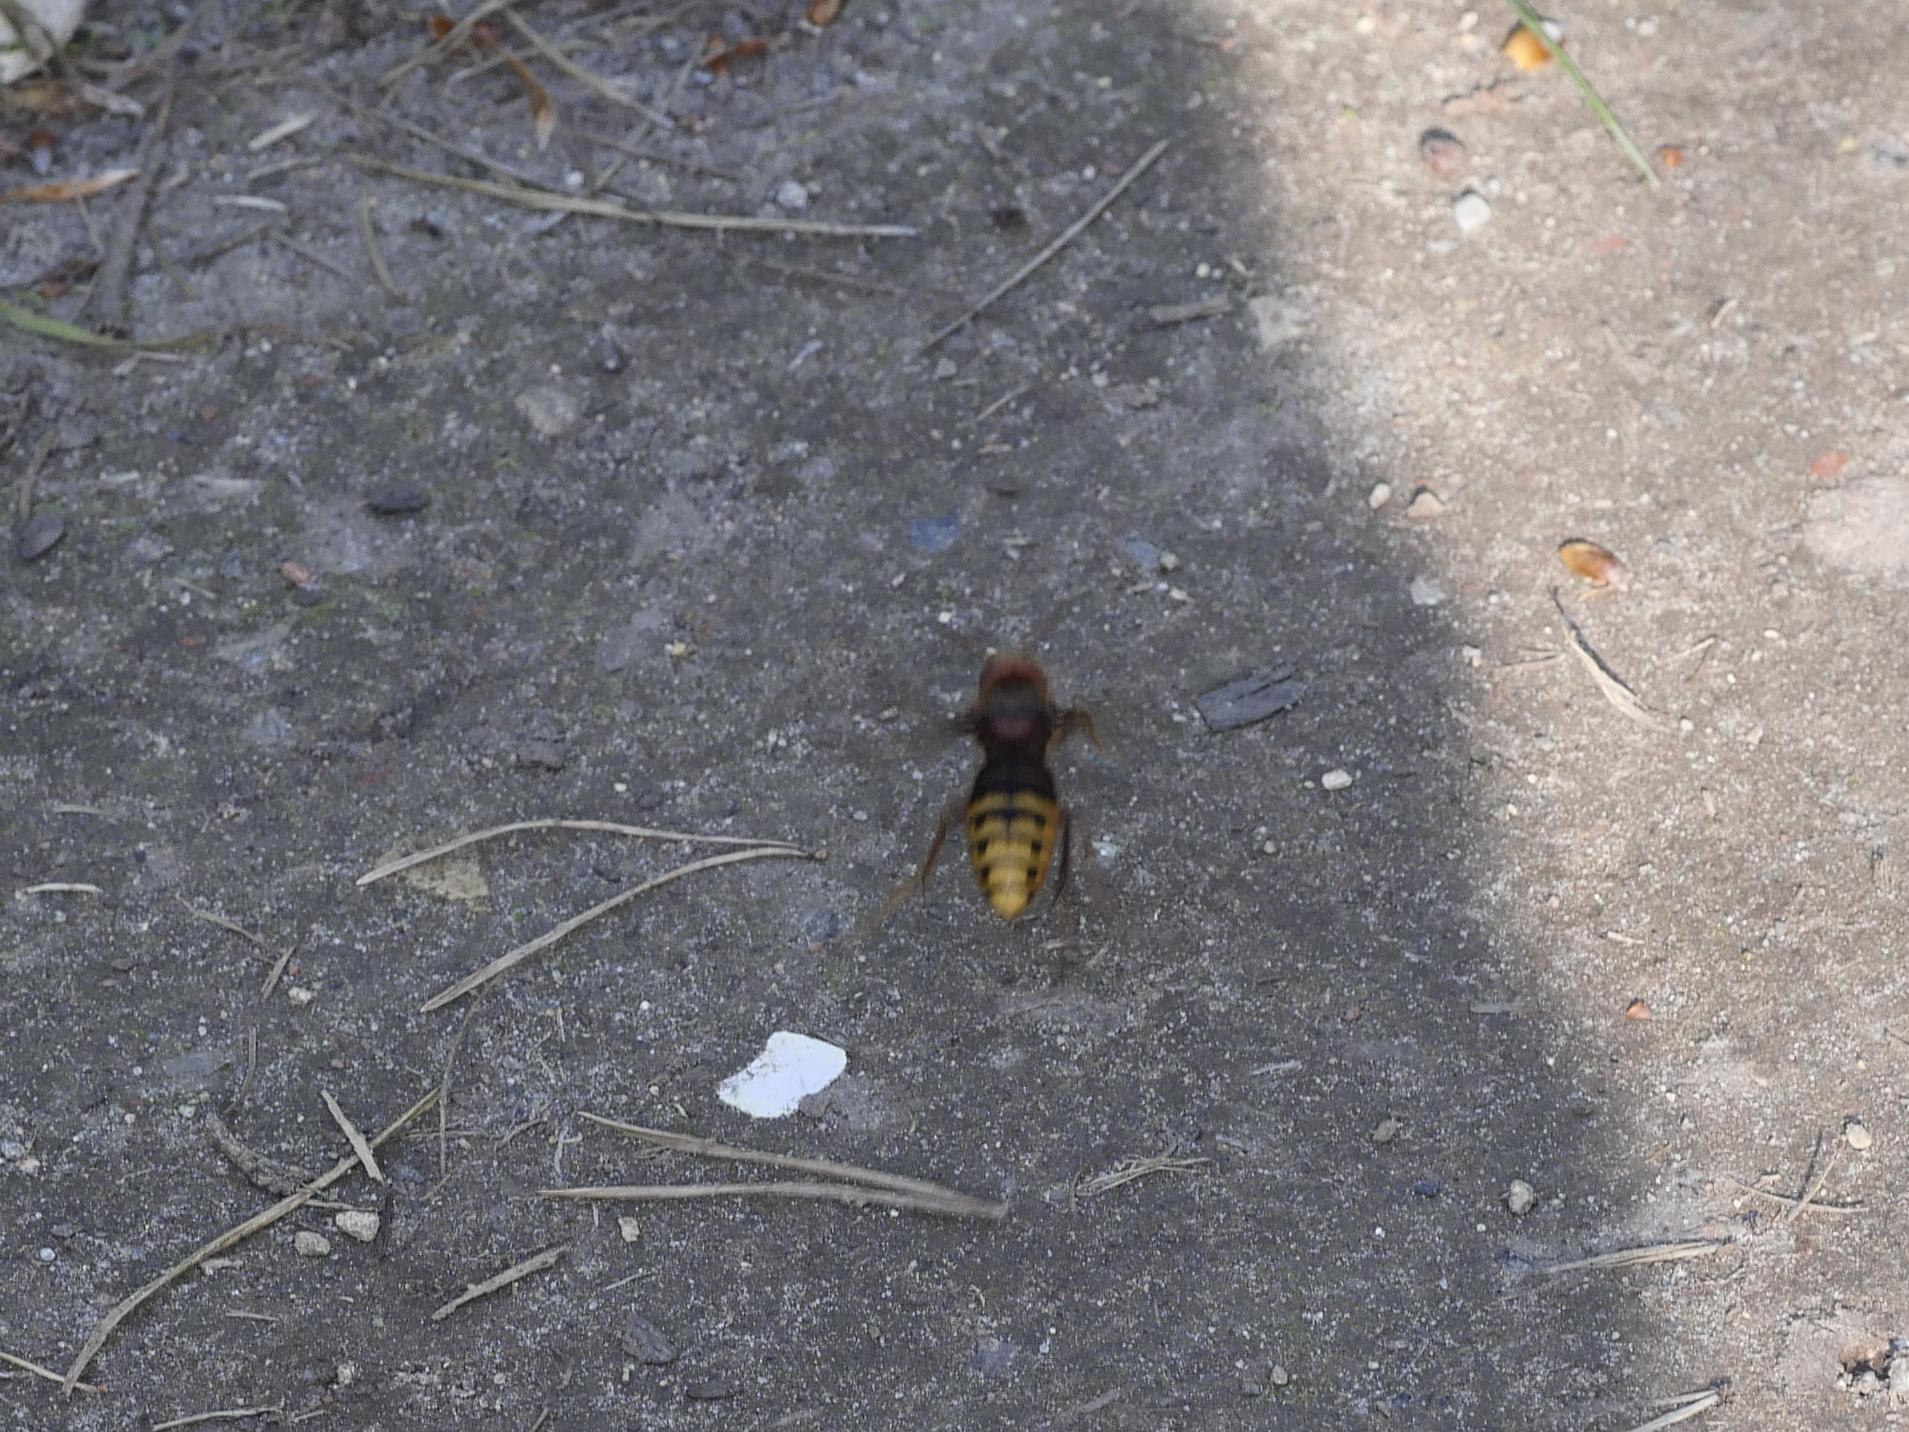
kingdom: Animalia
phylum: Arthropoda
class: Insecta
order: Hymenoptera
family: Vespidae
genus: Vespa
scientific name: Vespa crabro
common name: Hornet
